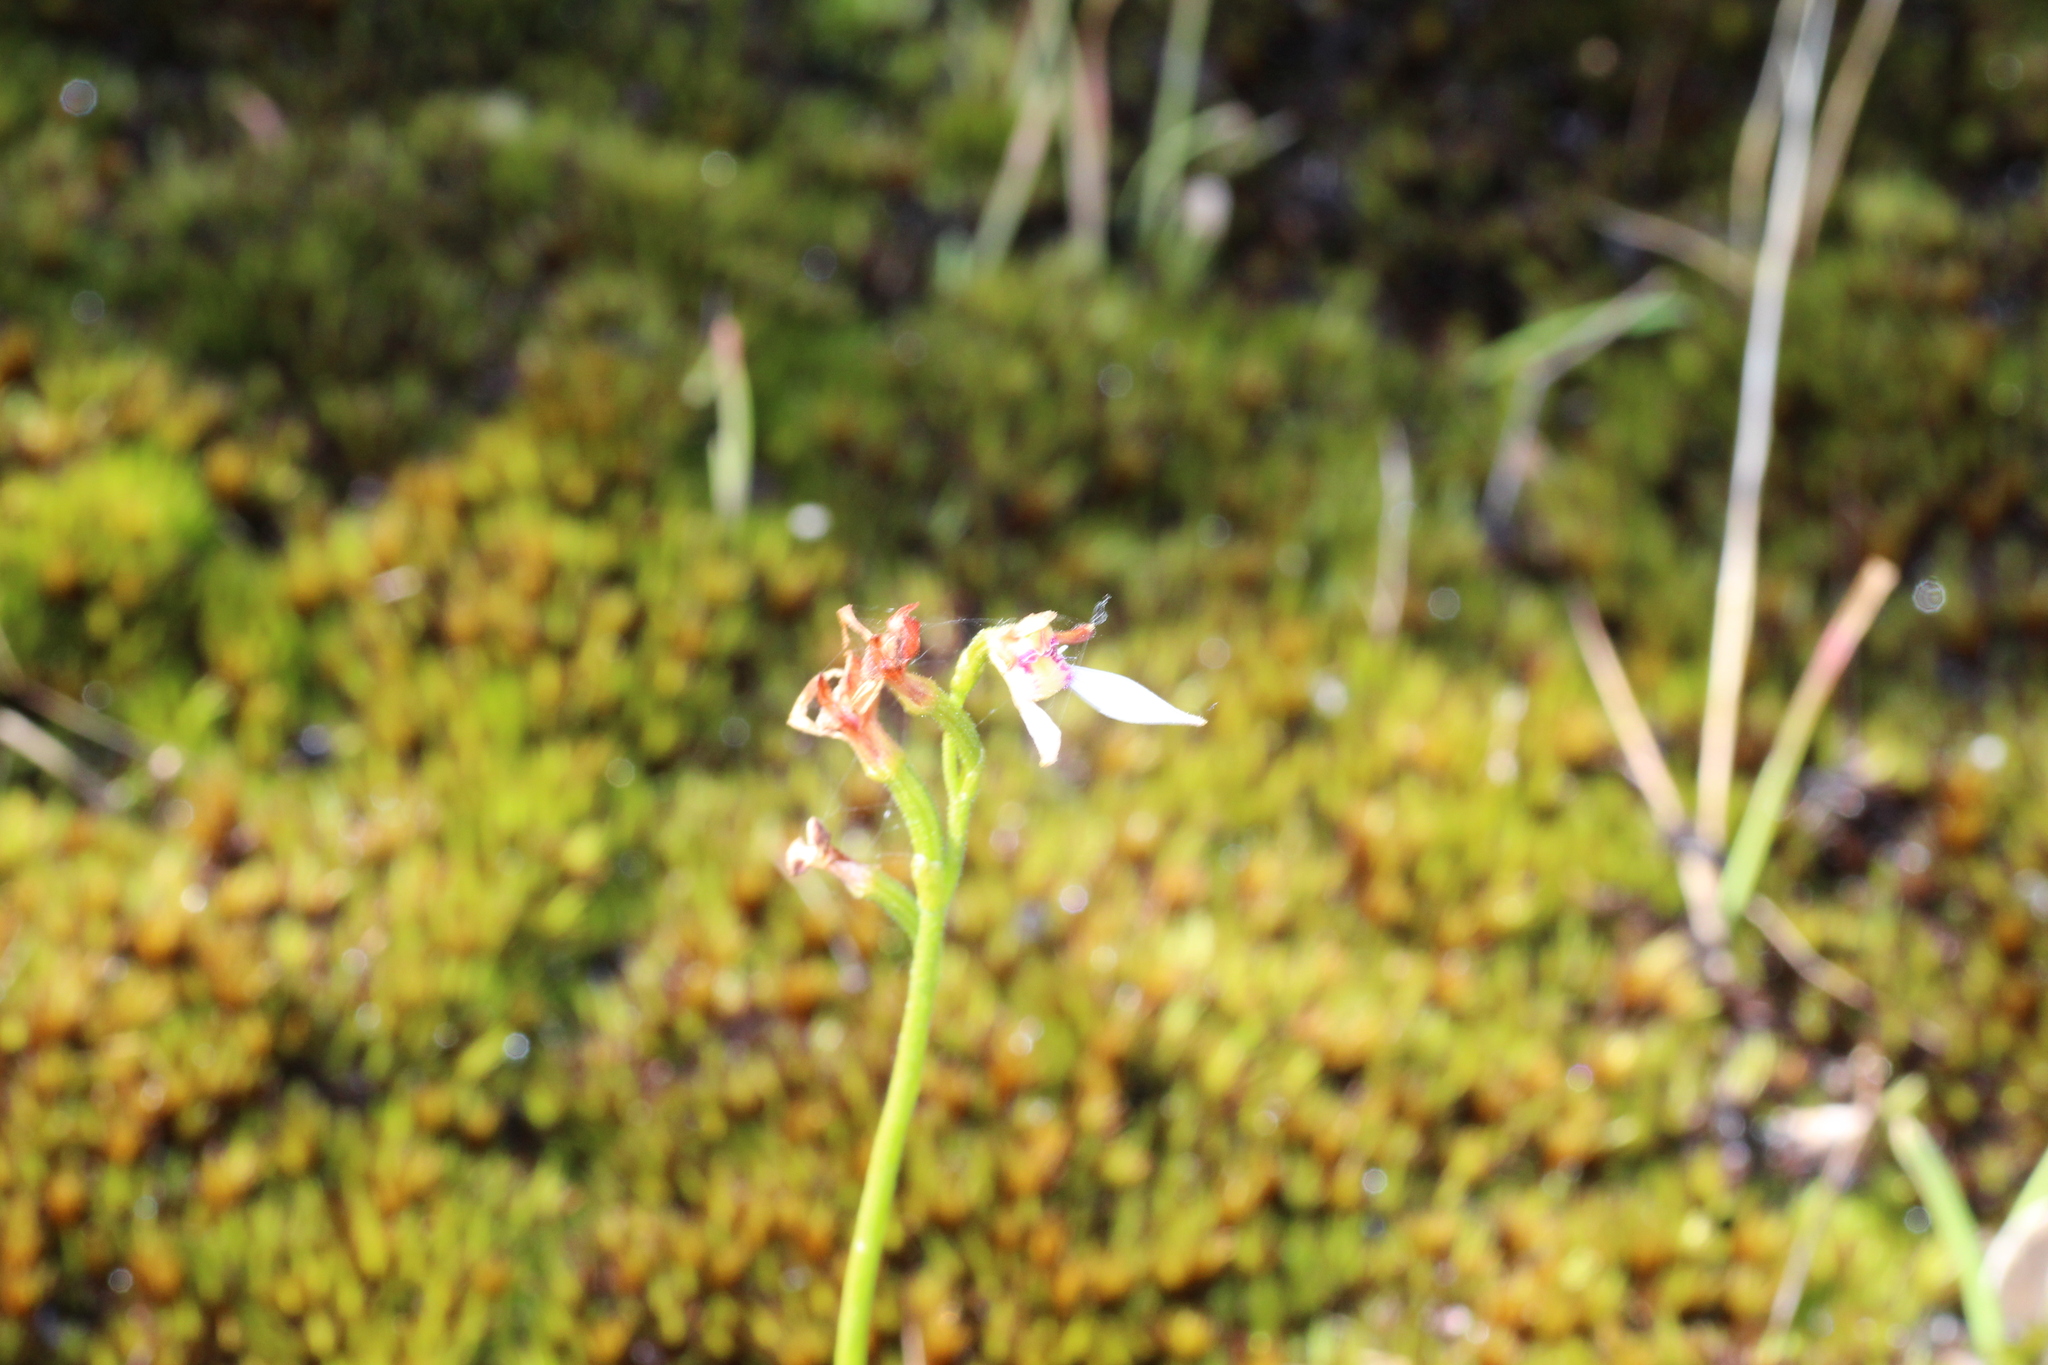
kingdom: Plantae
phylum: Tracheophyta
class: Liliopsida
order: Asparagales
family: Orchidaceae
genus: Eriochilus
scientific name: Eriochilus pulchellus
